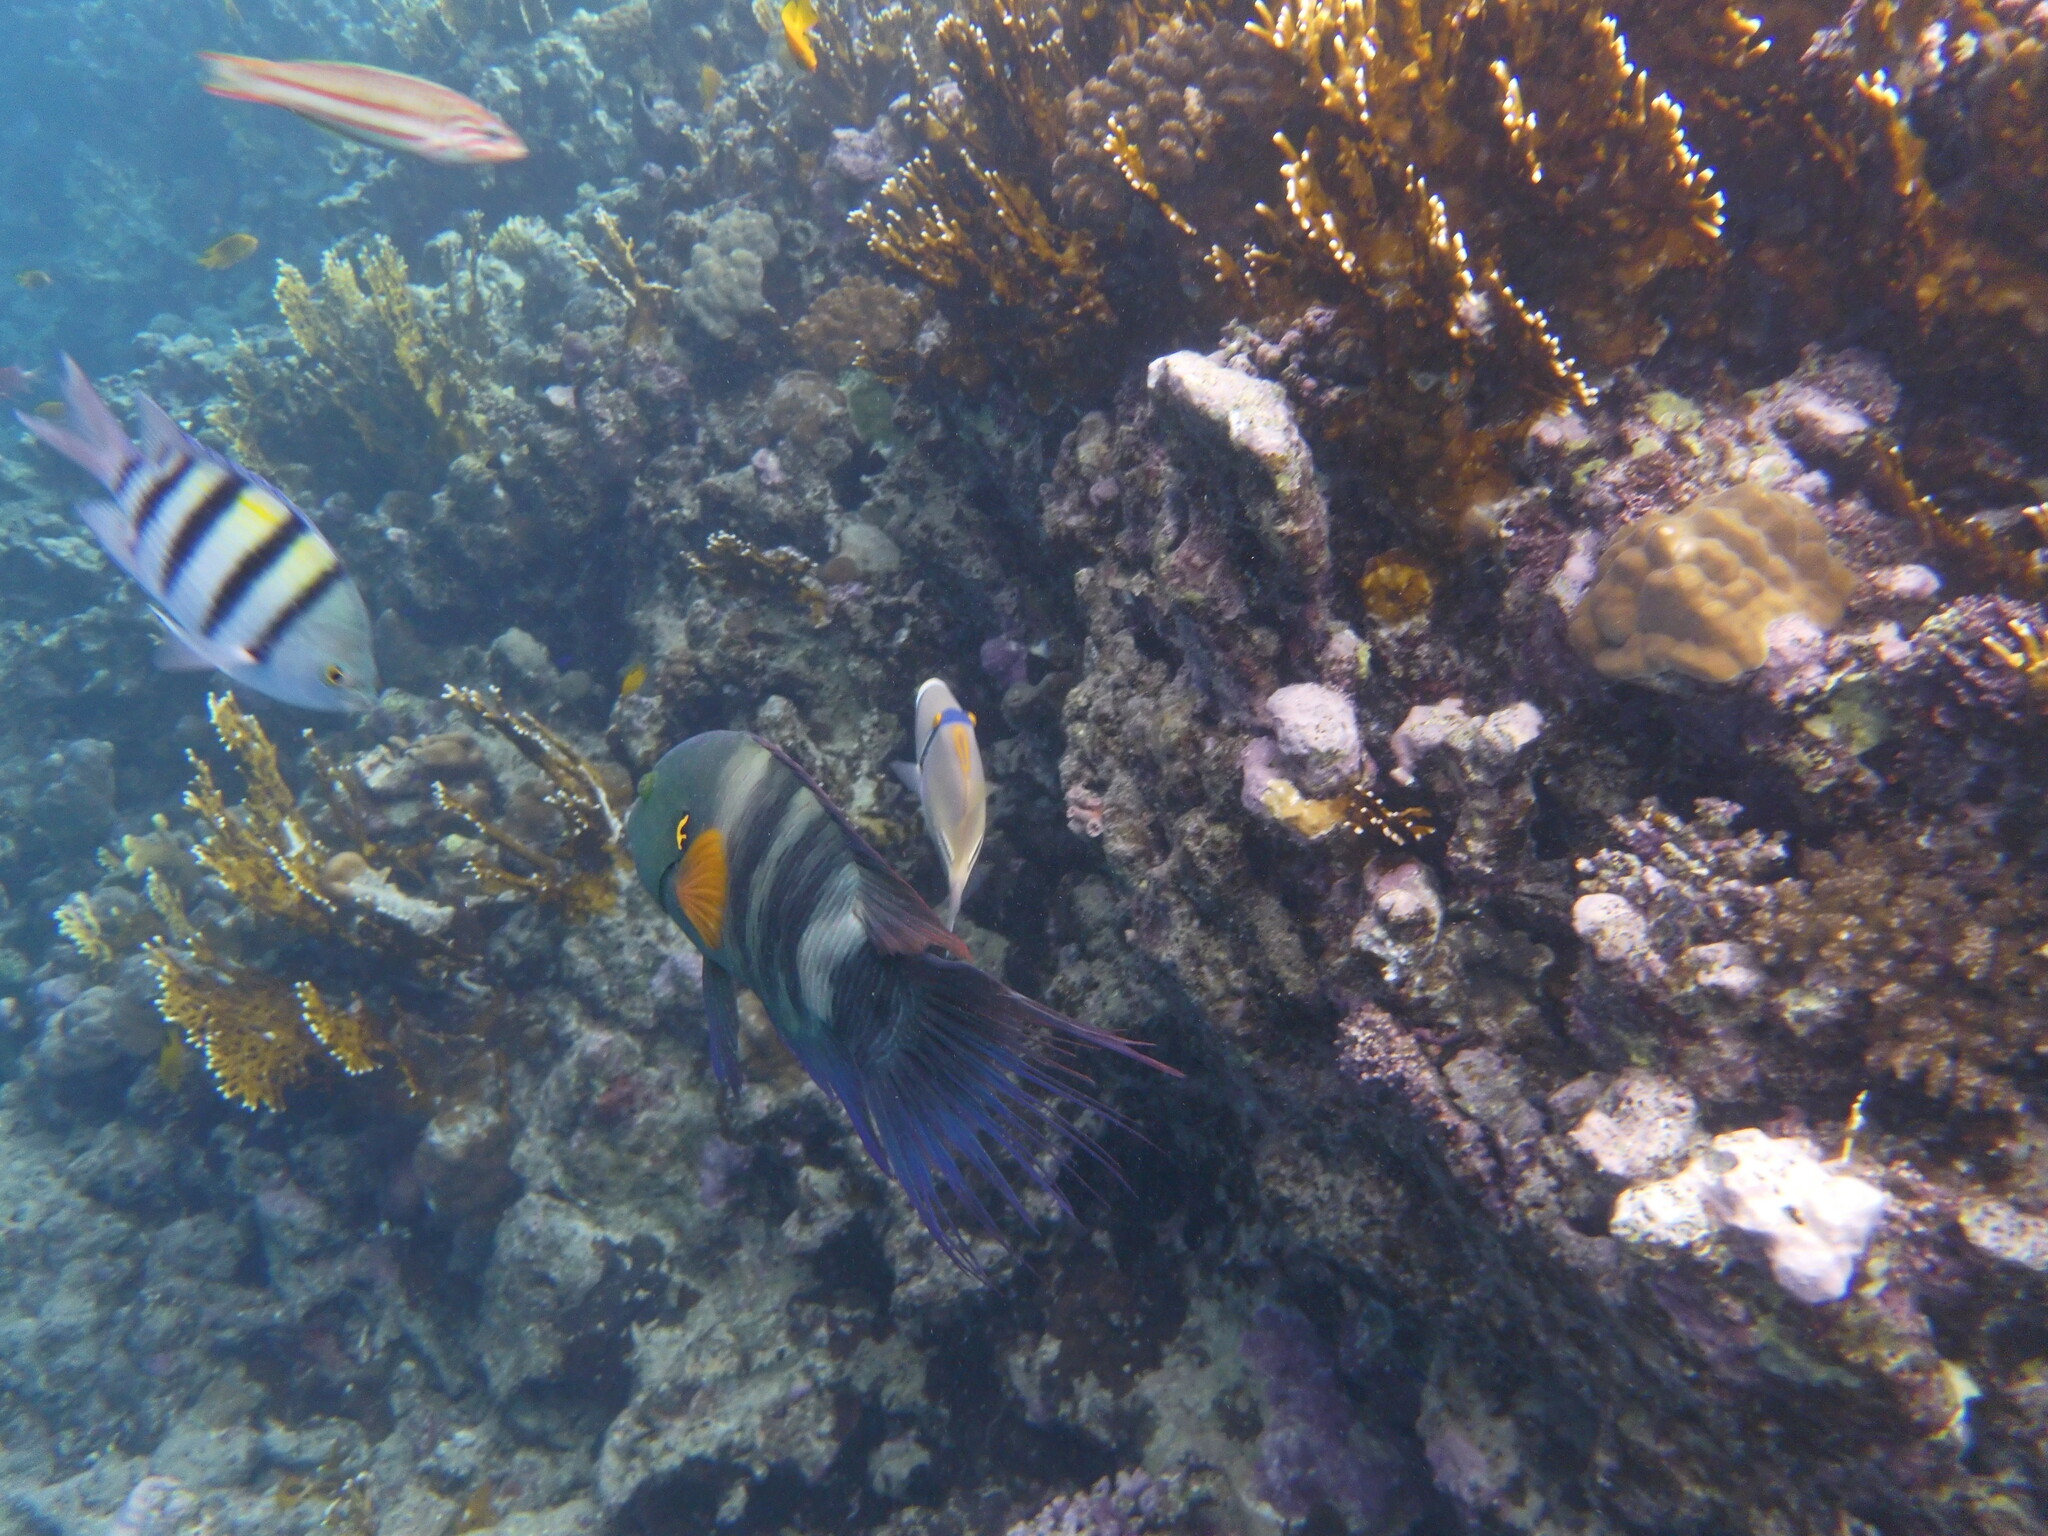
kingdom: Animalia
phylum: Chordata
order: Perciformes
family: Labridae
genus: Cheilinus
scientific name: Cheilinus lunulatus
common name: Broomtail wrasse
